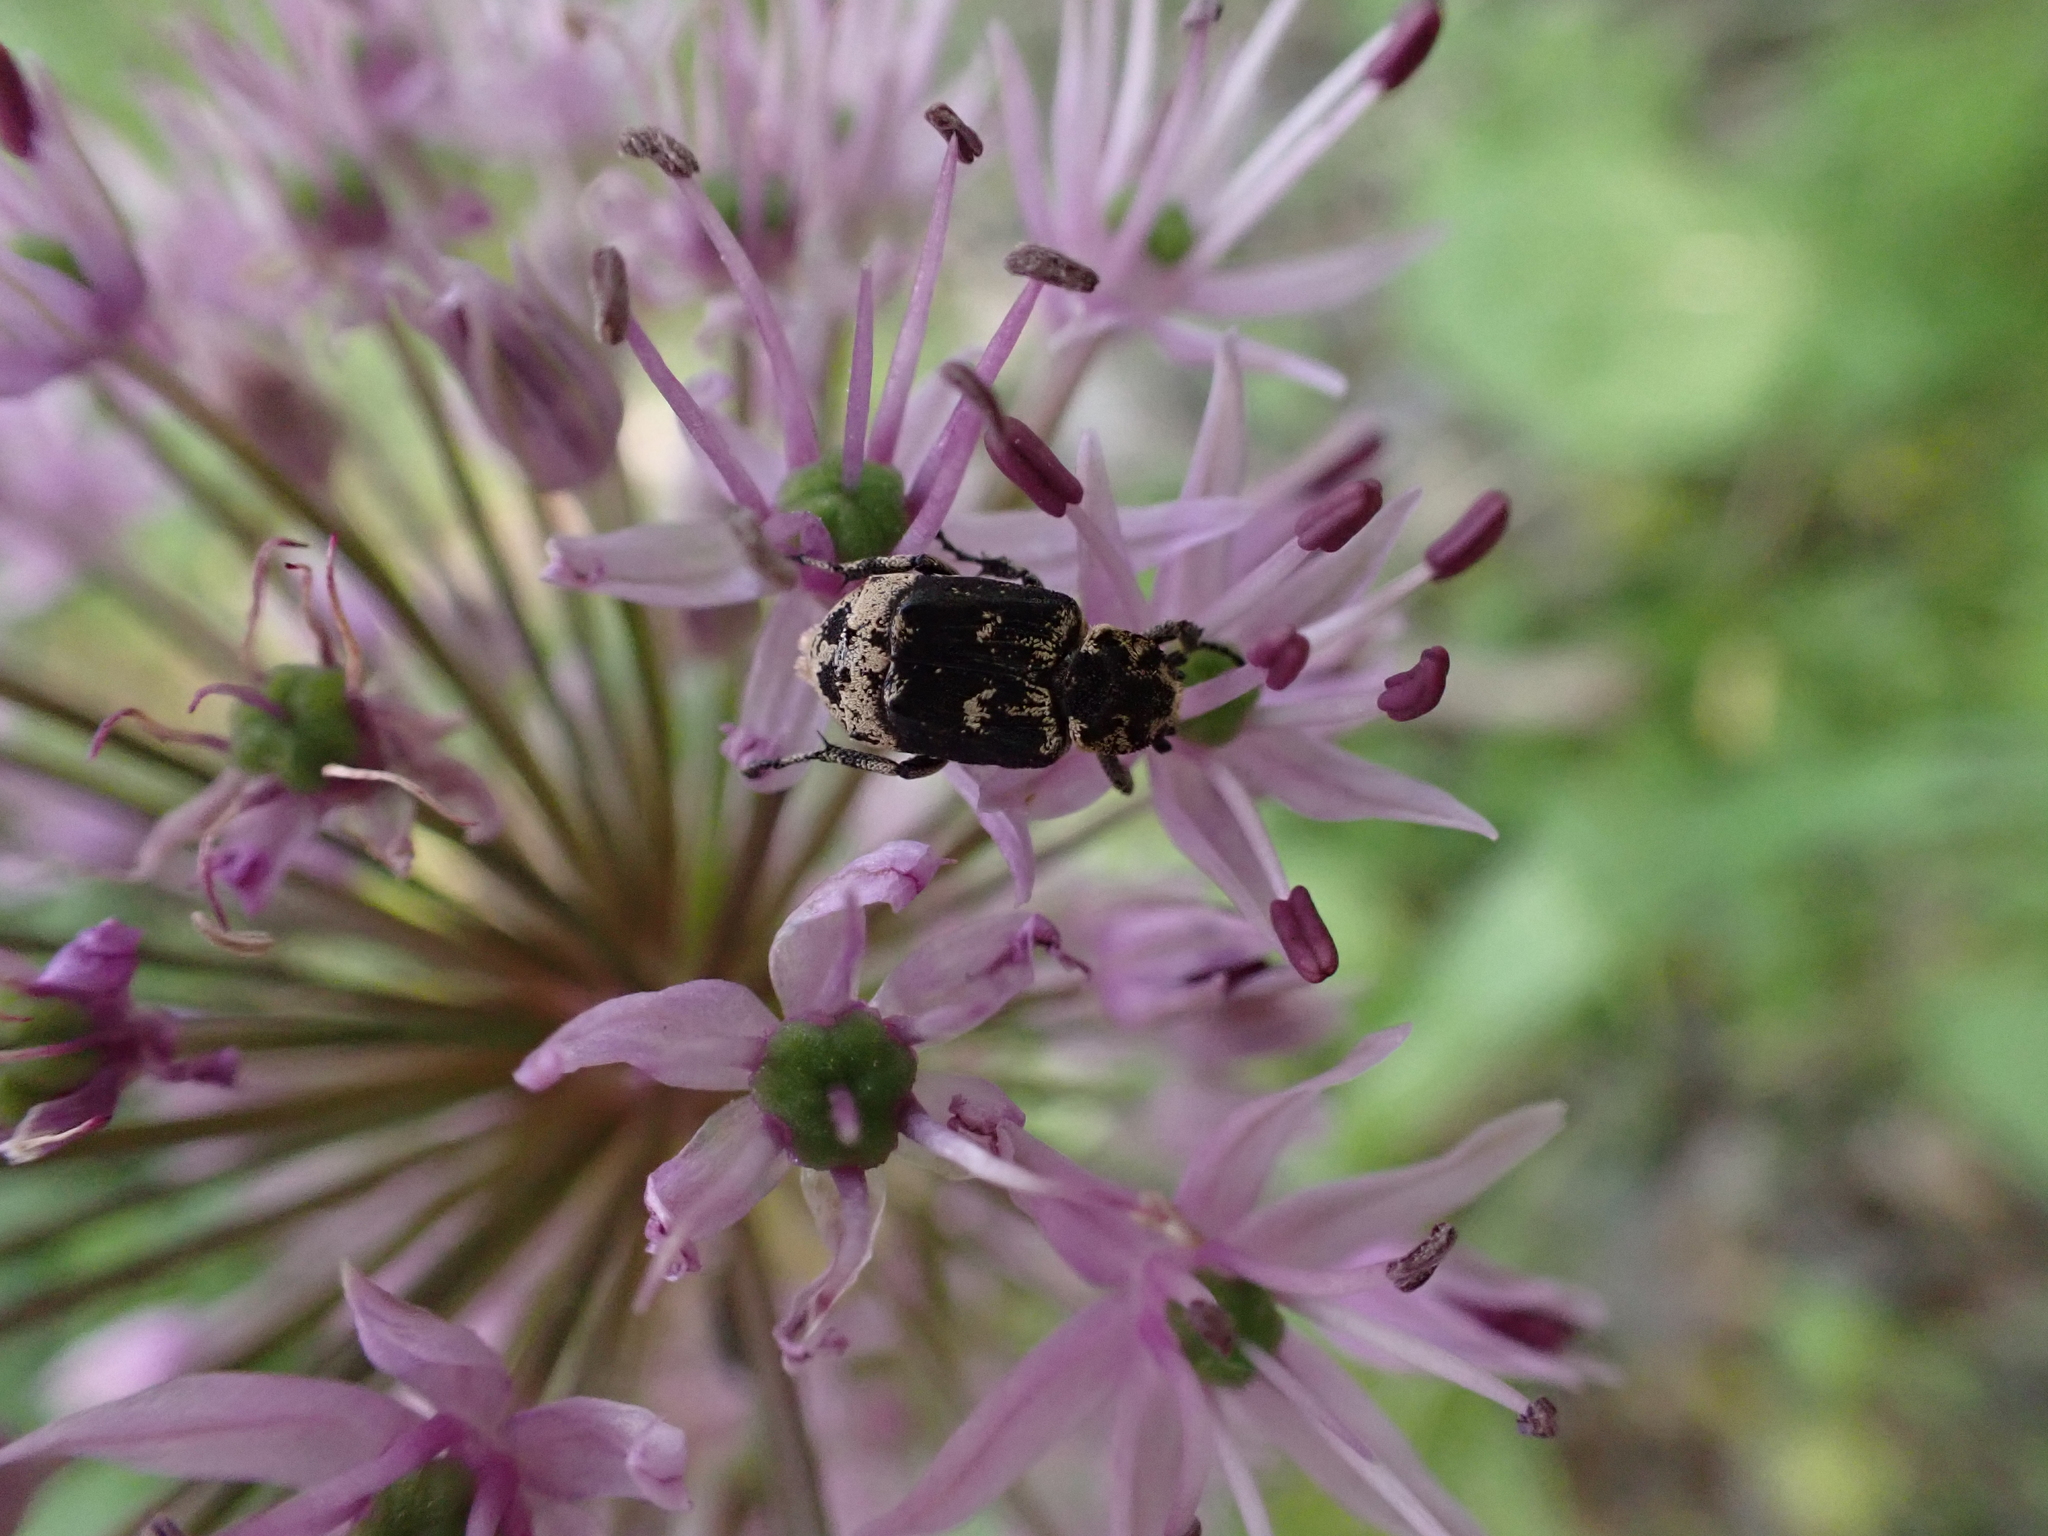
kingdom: Animalia
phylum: Arthropoda
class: Insecta
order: Coleoptera
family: Scarabaeidae
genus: Valgus
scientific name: Valgus hemipterus
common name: Bug flower chafer
